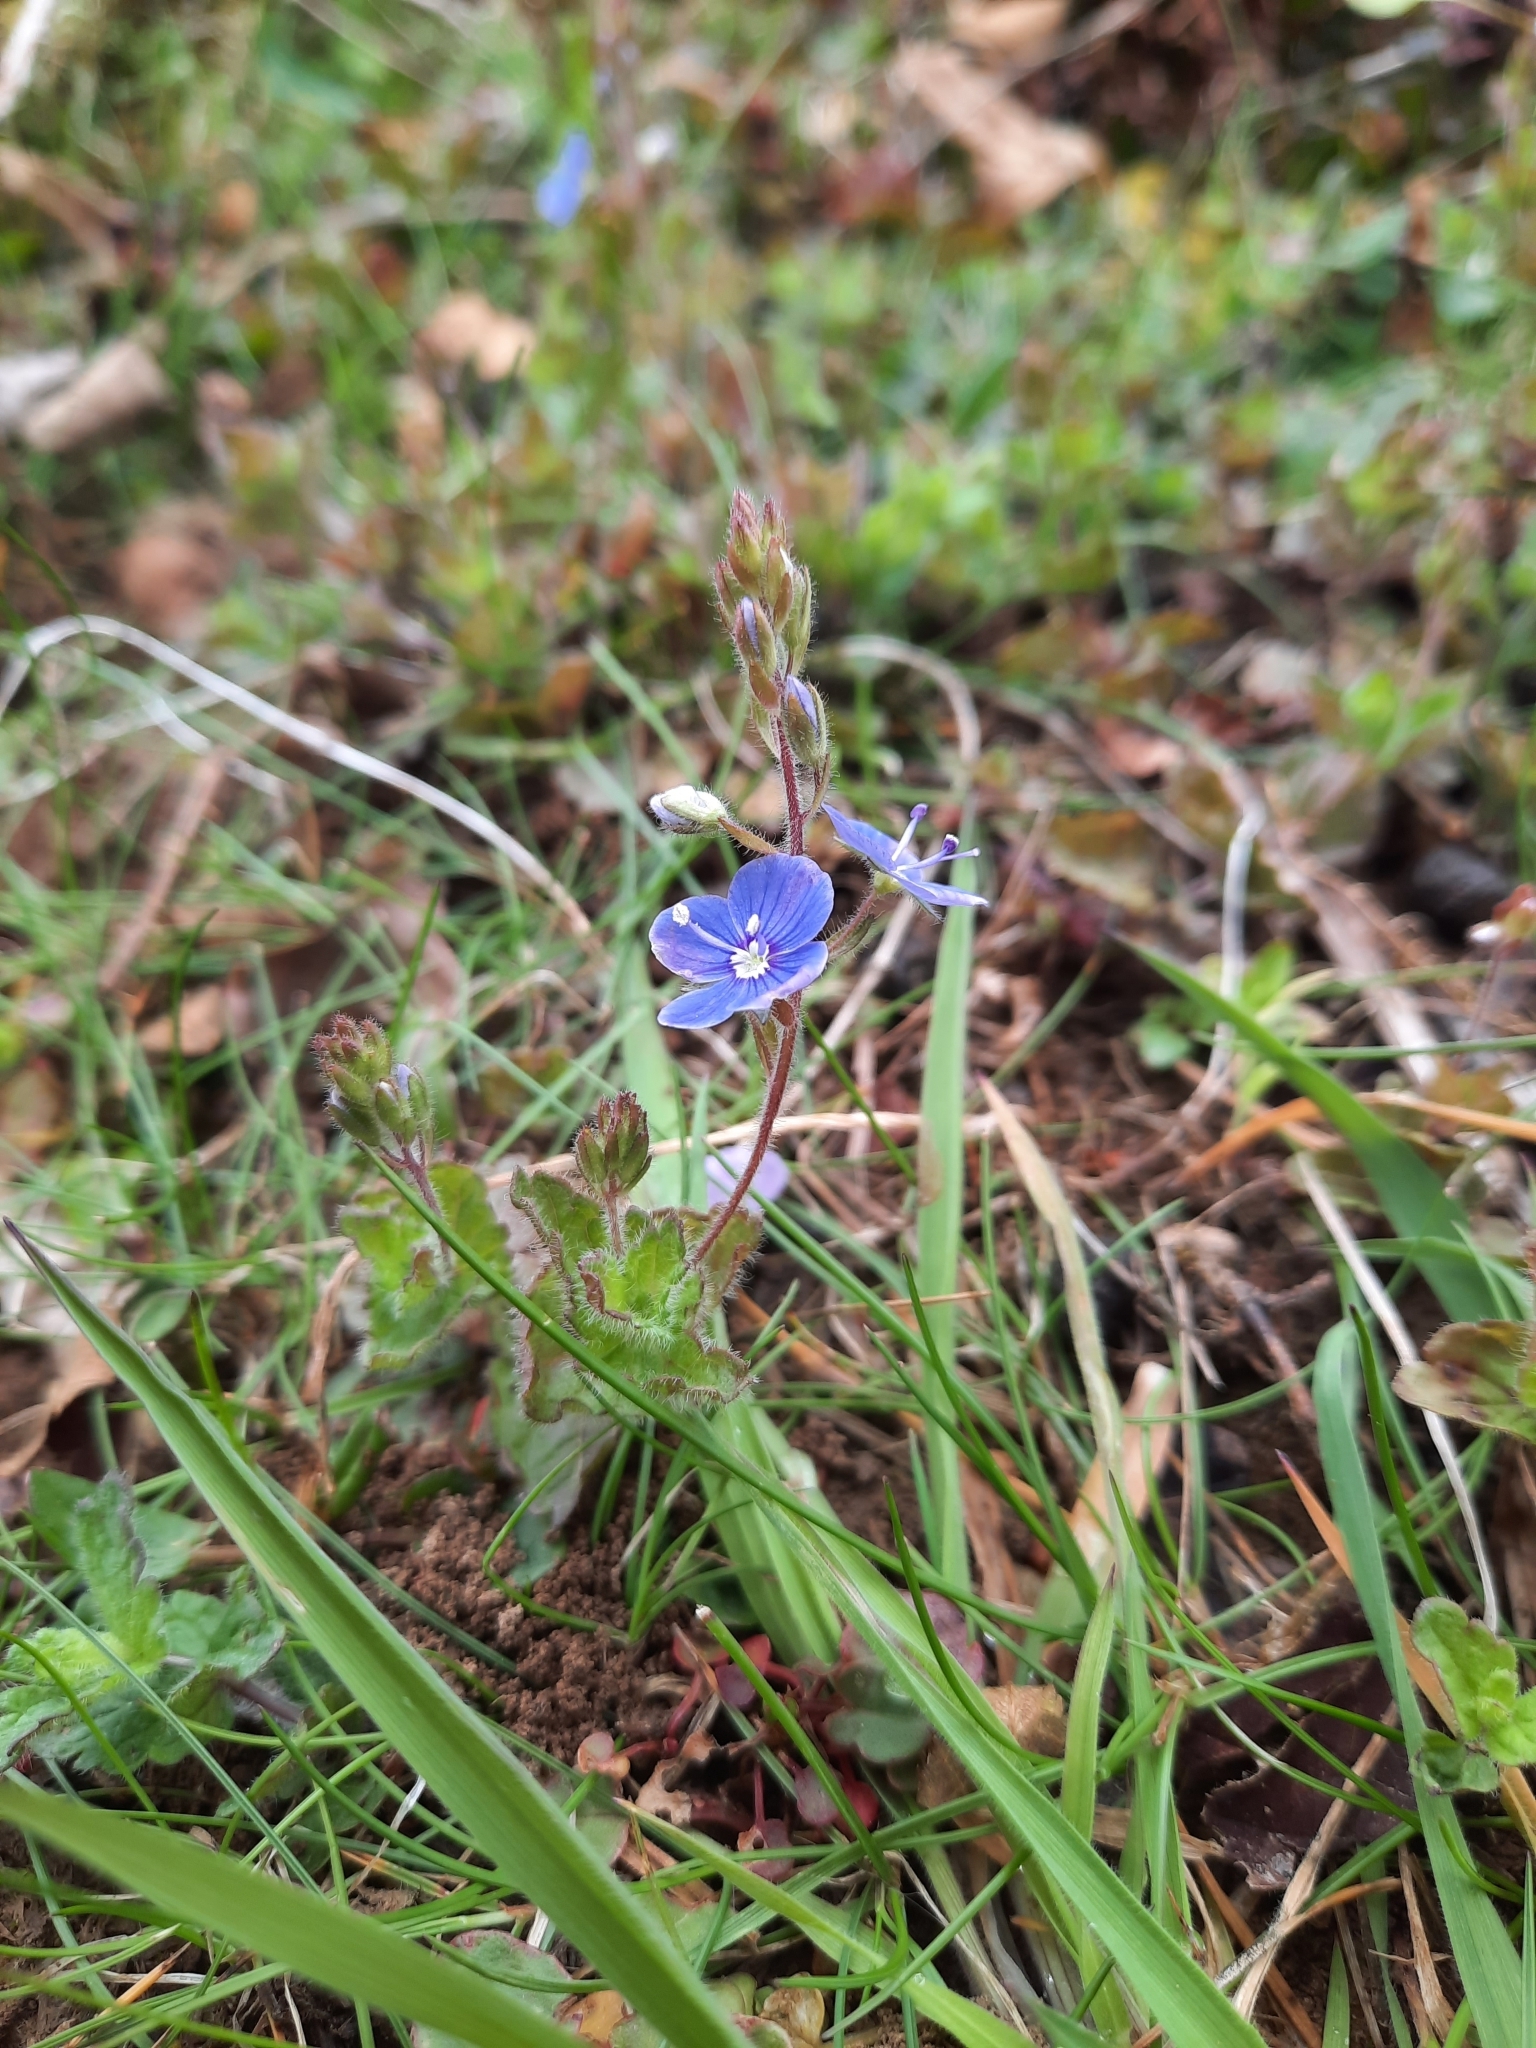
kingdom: Plantae
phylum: Tracheophyta
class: Magnoliopsida
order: Lamiales
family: Plantaginaceae
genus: Veronica
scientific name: Veronica chamaedrys
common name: Germander speedwell
